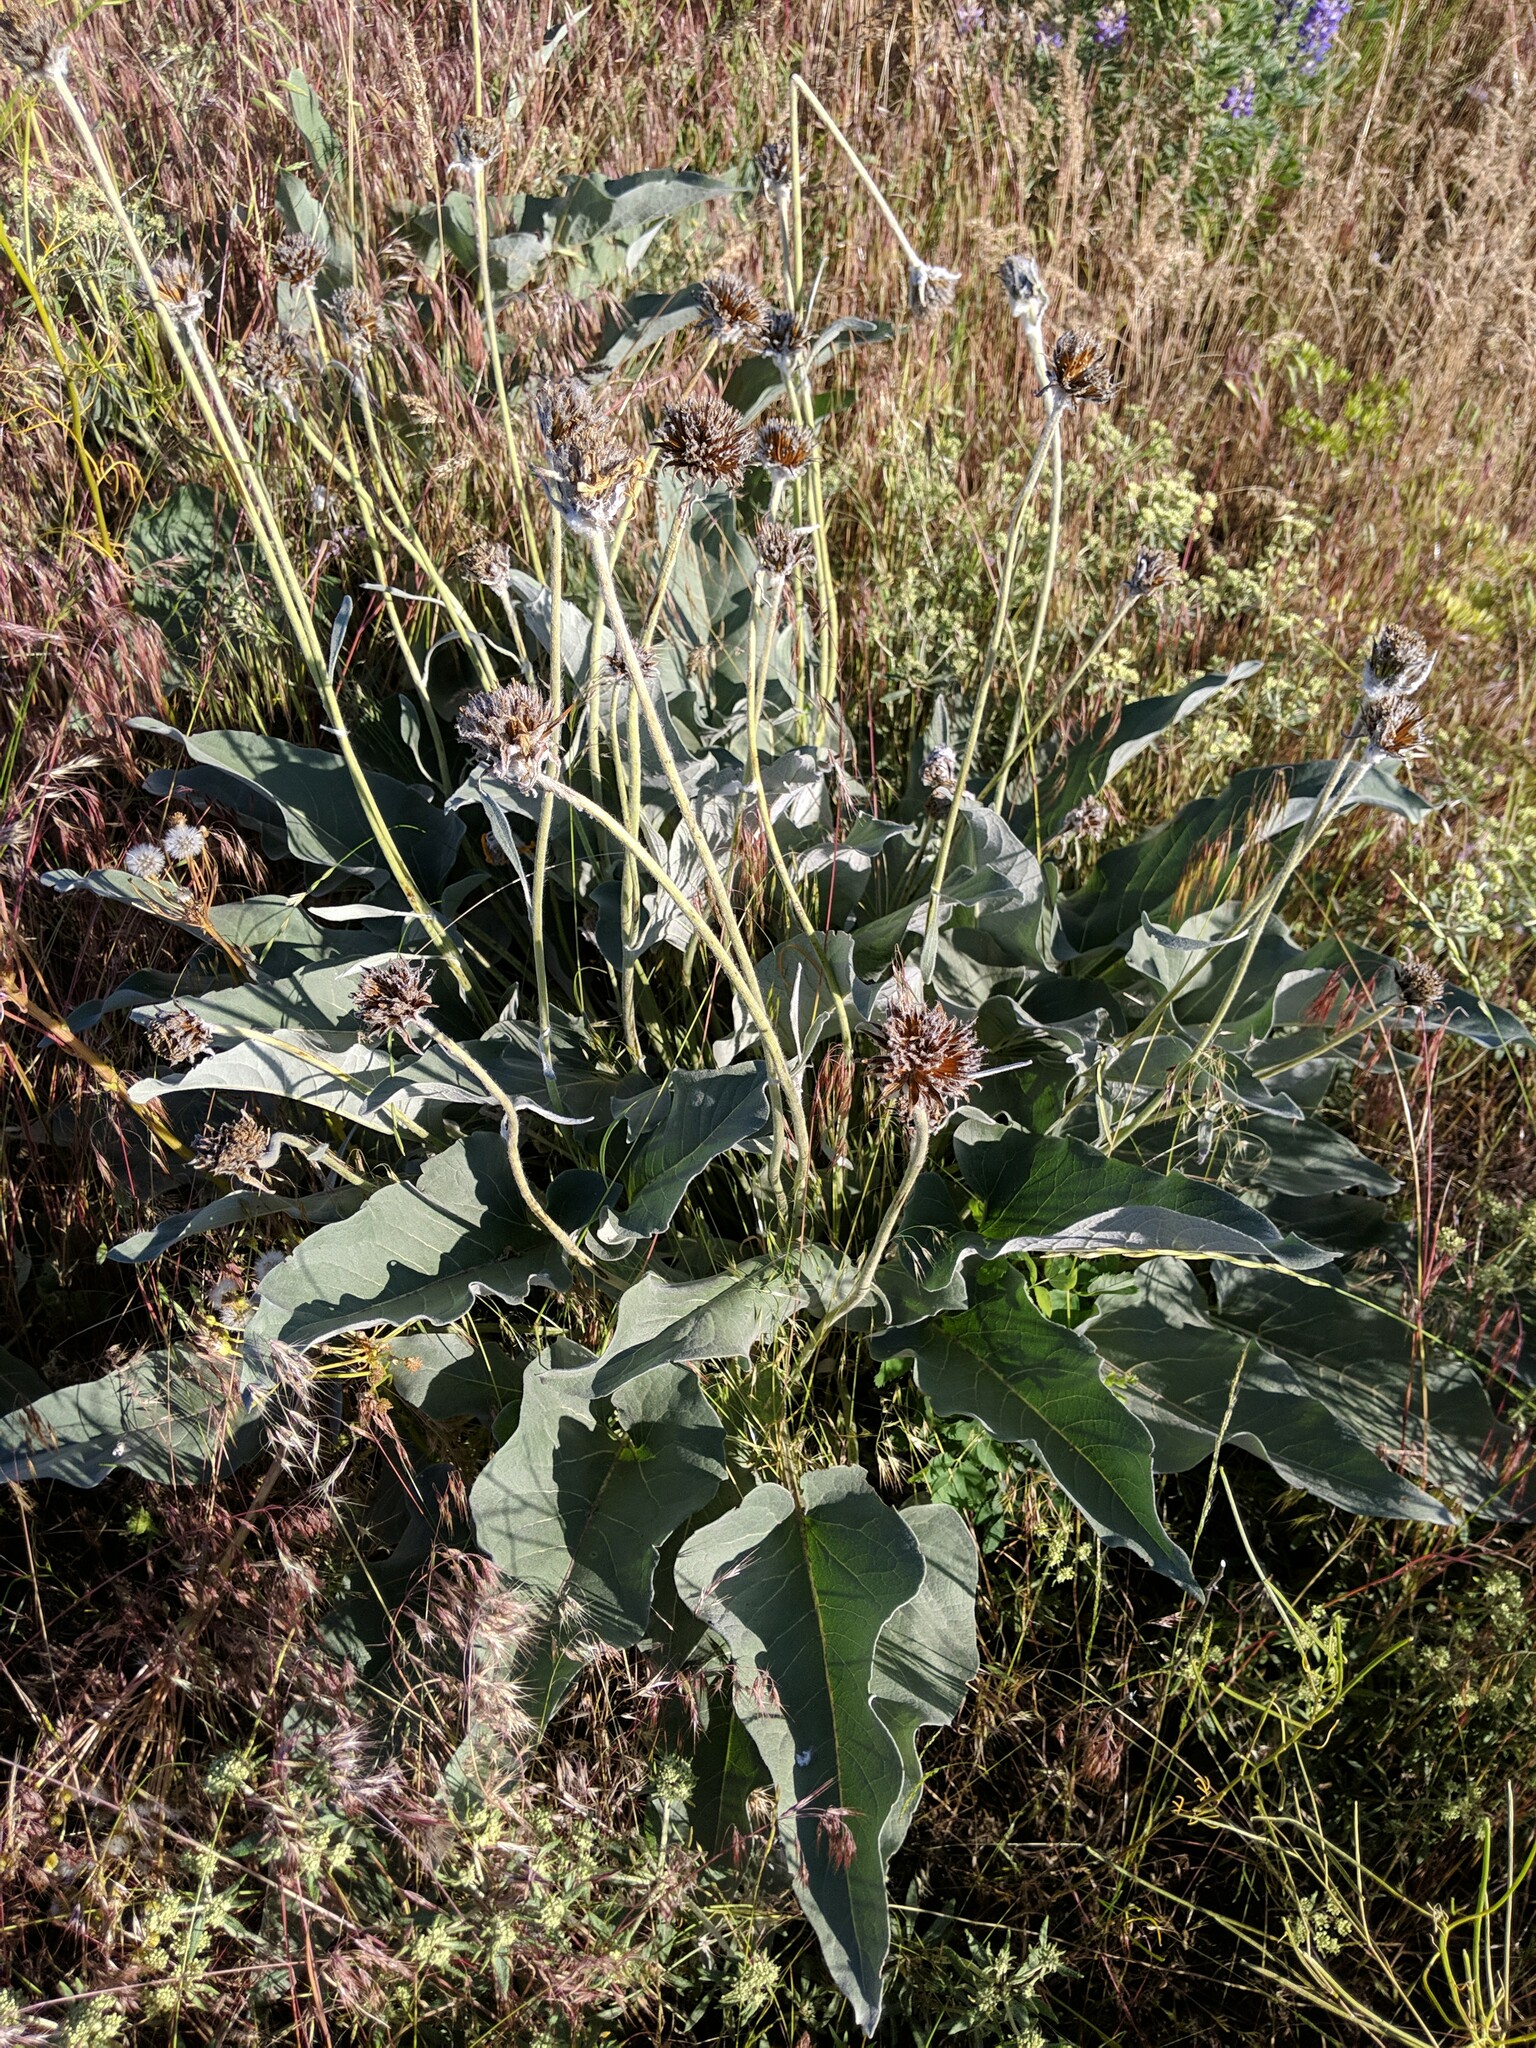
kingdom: Plantae
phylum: Tracheophyta
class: Magnoliopsida
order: Asterales
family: Asteraceae
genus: Wyethia
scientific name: Wyethia sagittata
